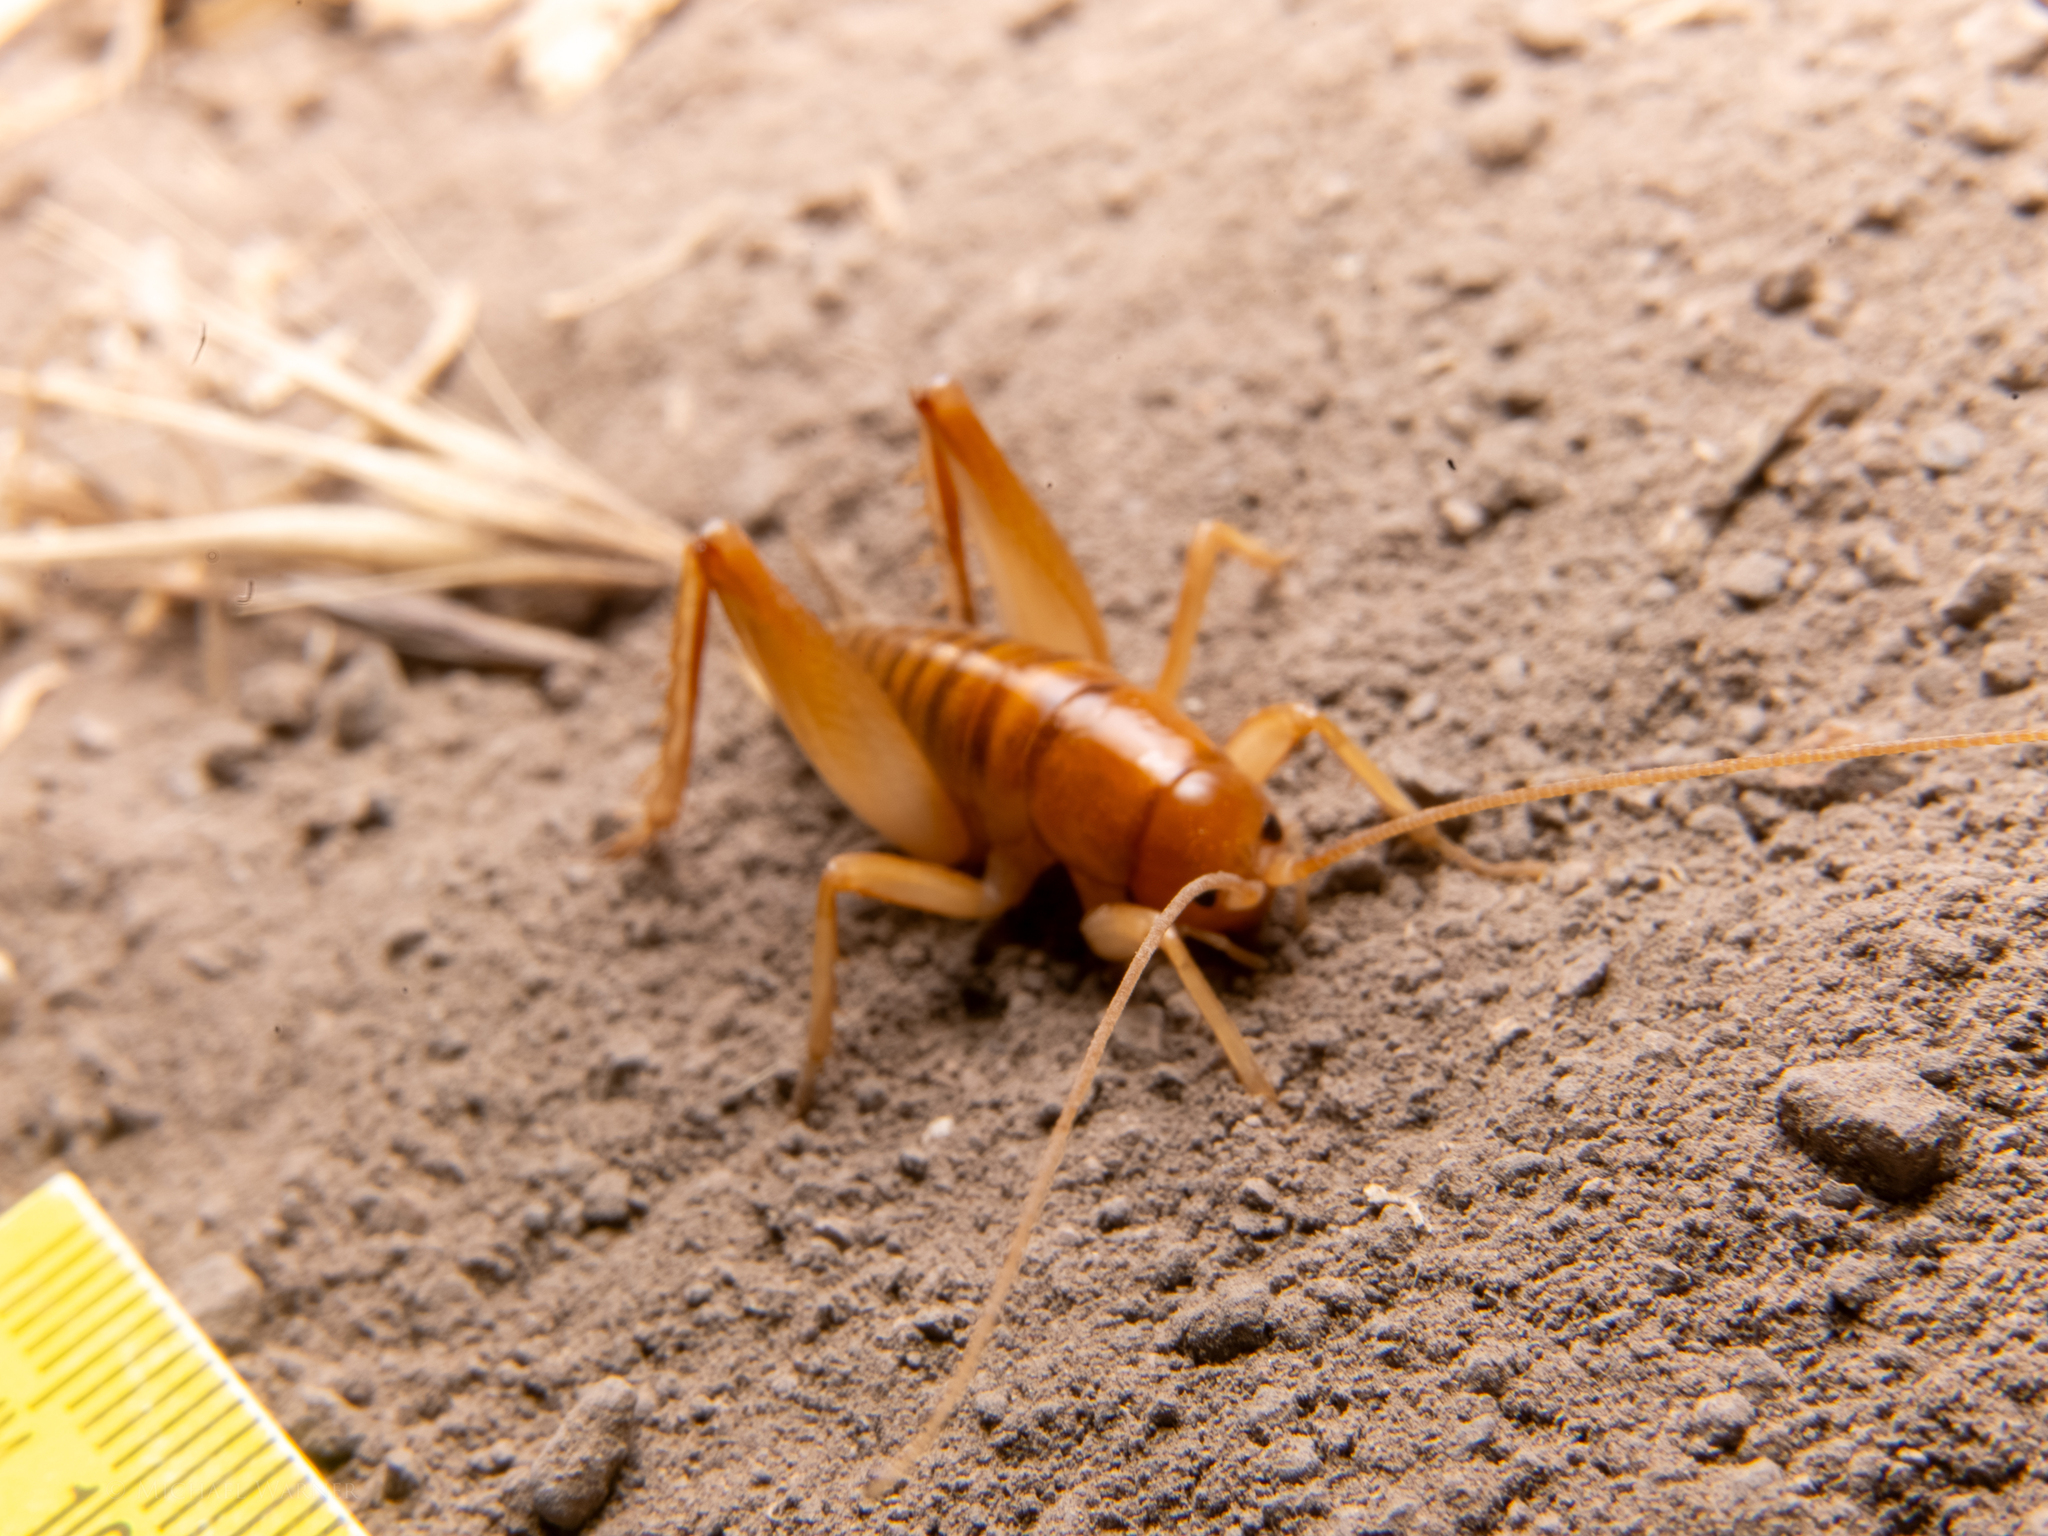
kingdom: Animalia
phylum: Arthropoda
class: Insecta
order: Orthoptera
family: Rhaphidophoridae
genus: Ceuthophilus
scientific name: Ceuthophilus californianus
